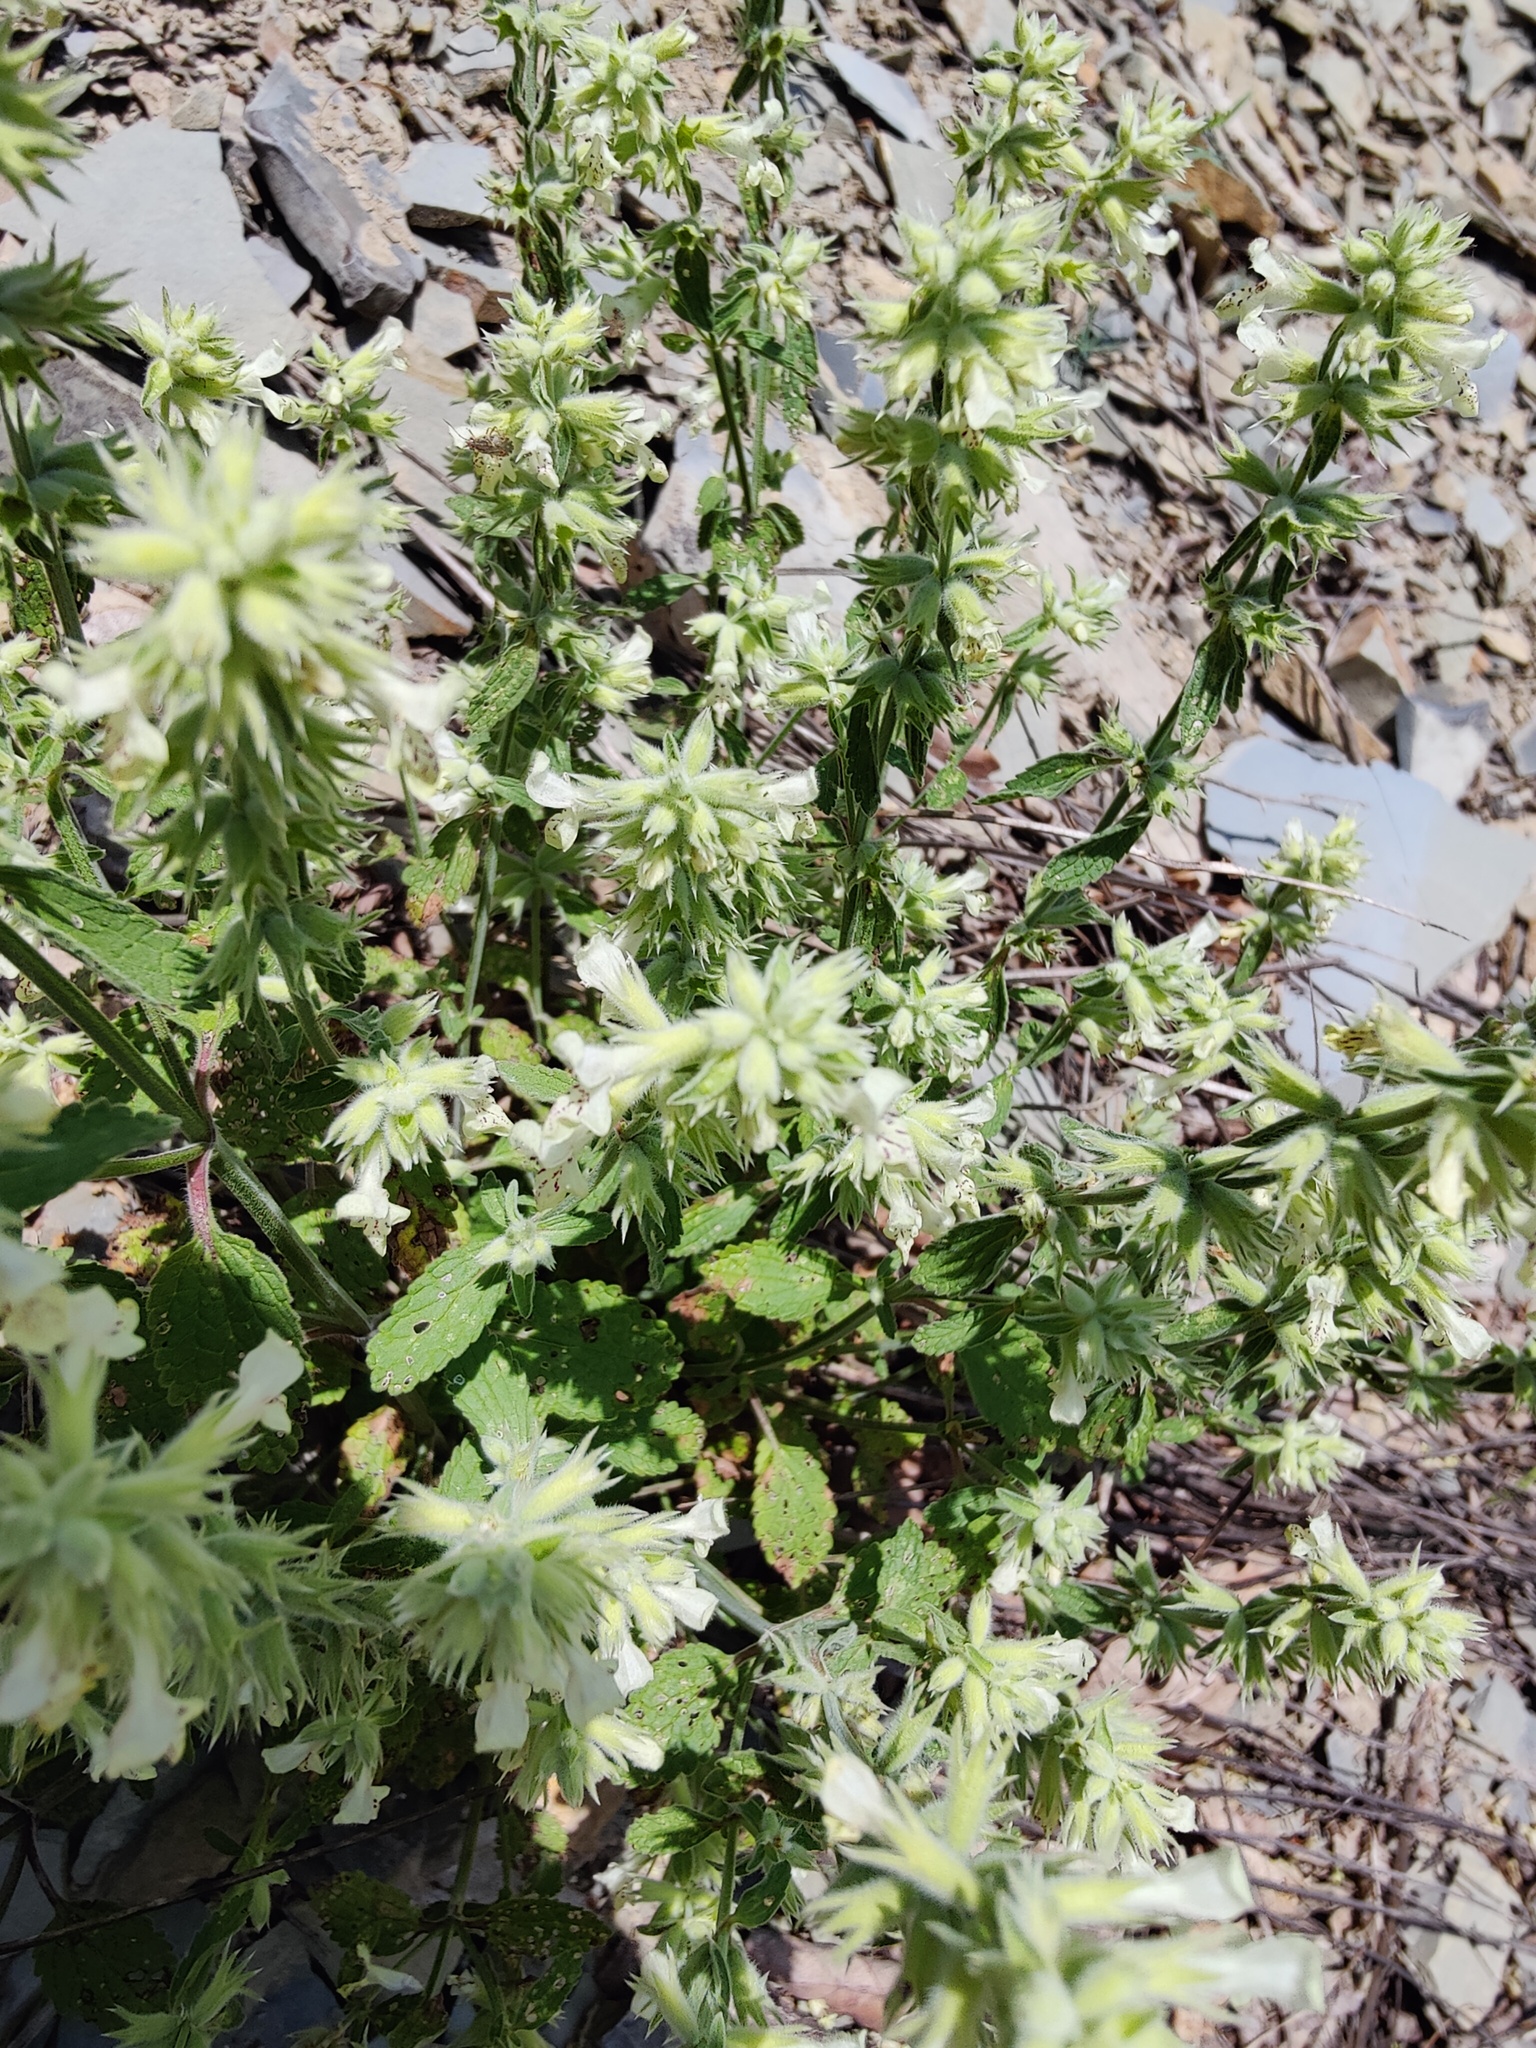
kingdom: Plantae
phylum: Tracheophyta
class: Magnoliopsida
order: Lamiales
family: Lamiaceae
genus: Stachys
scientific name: Stachys annua
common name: Annual yellow-woundwort
